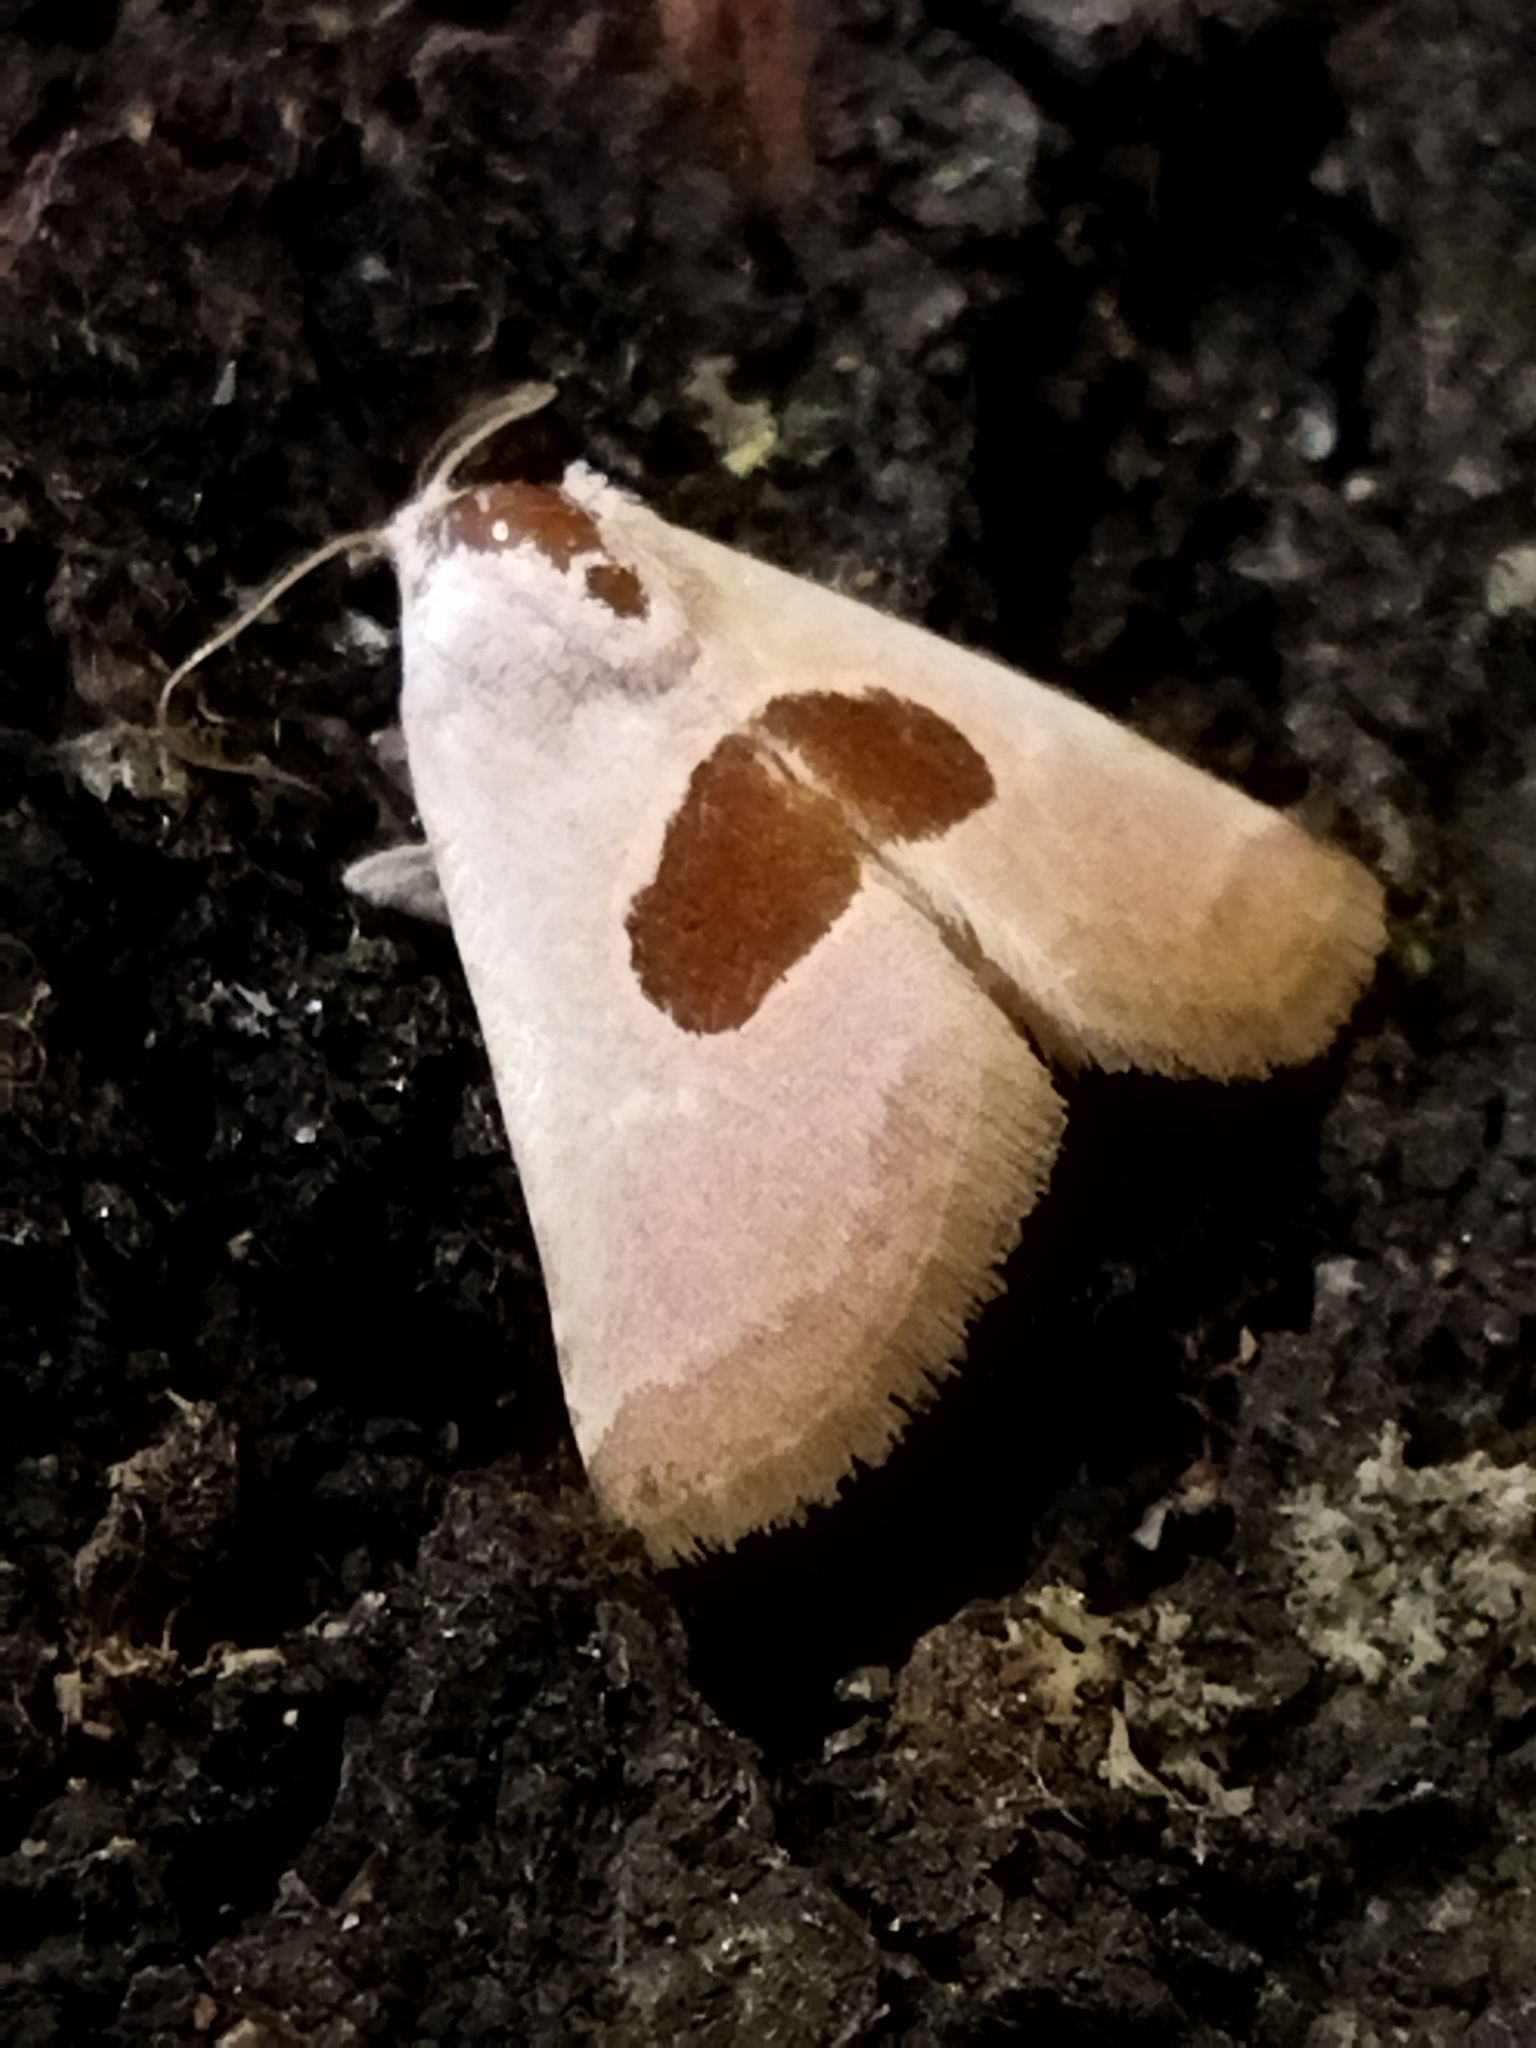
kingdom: Animalia
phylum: Arthropoda
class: Insecta
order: Lepidoptera
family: Noctuidae
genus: Calymma
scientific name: Calymma communimacula
